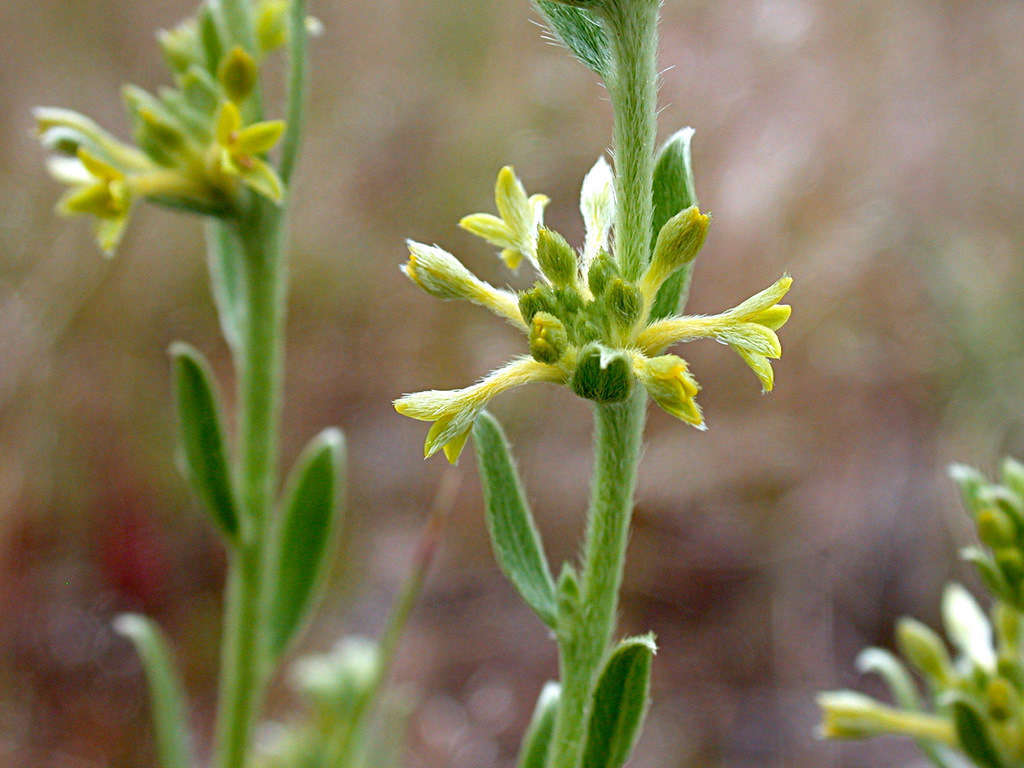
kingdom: Plantae
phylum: Tracheophyta
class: Magnoliopsida
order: Malvales
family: Thymelaeaceae
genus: Pimelea
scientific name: Pimelea curviflora
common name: Curved riceflower
